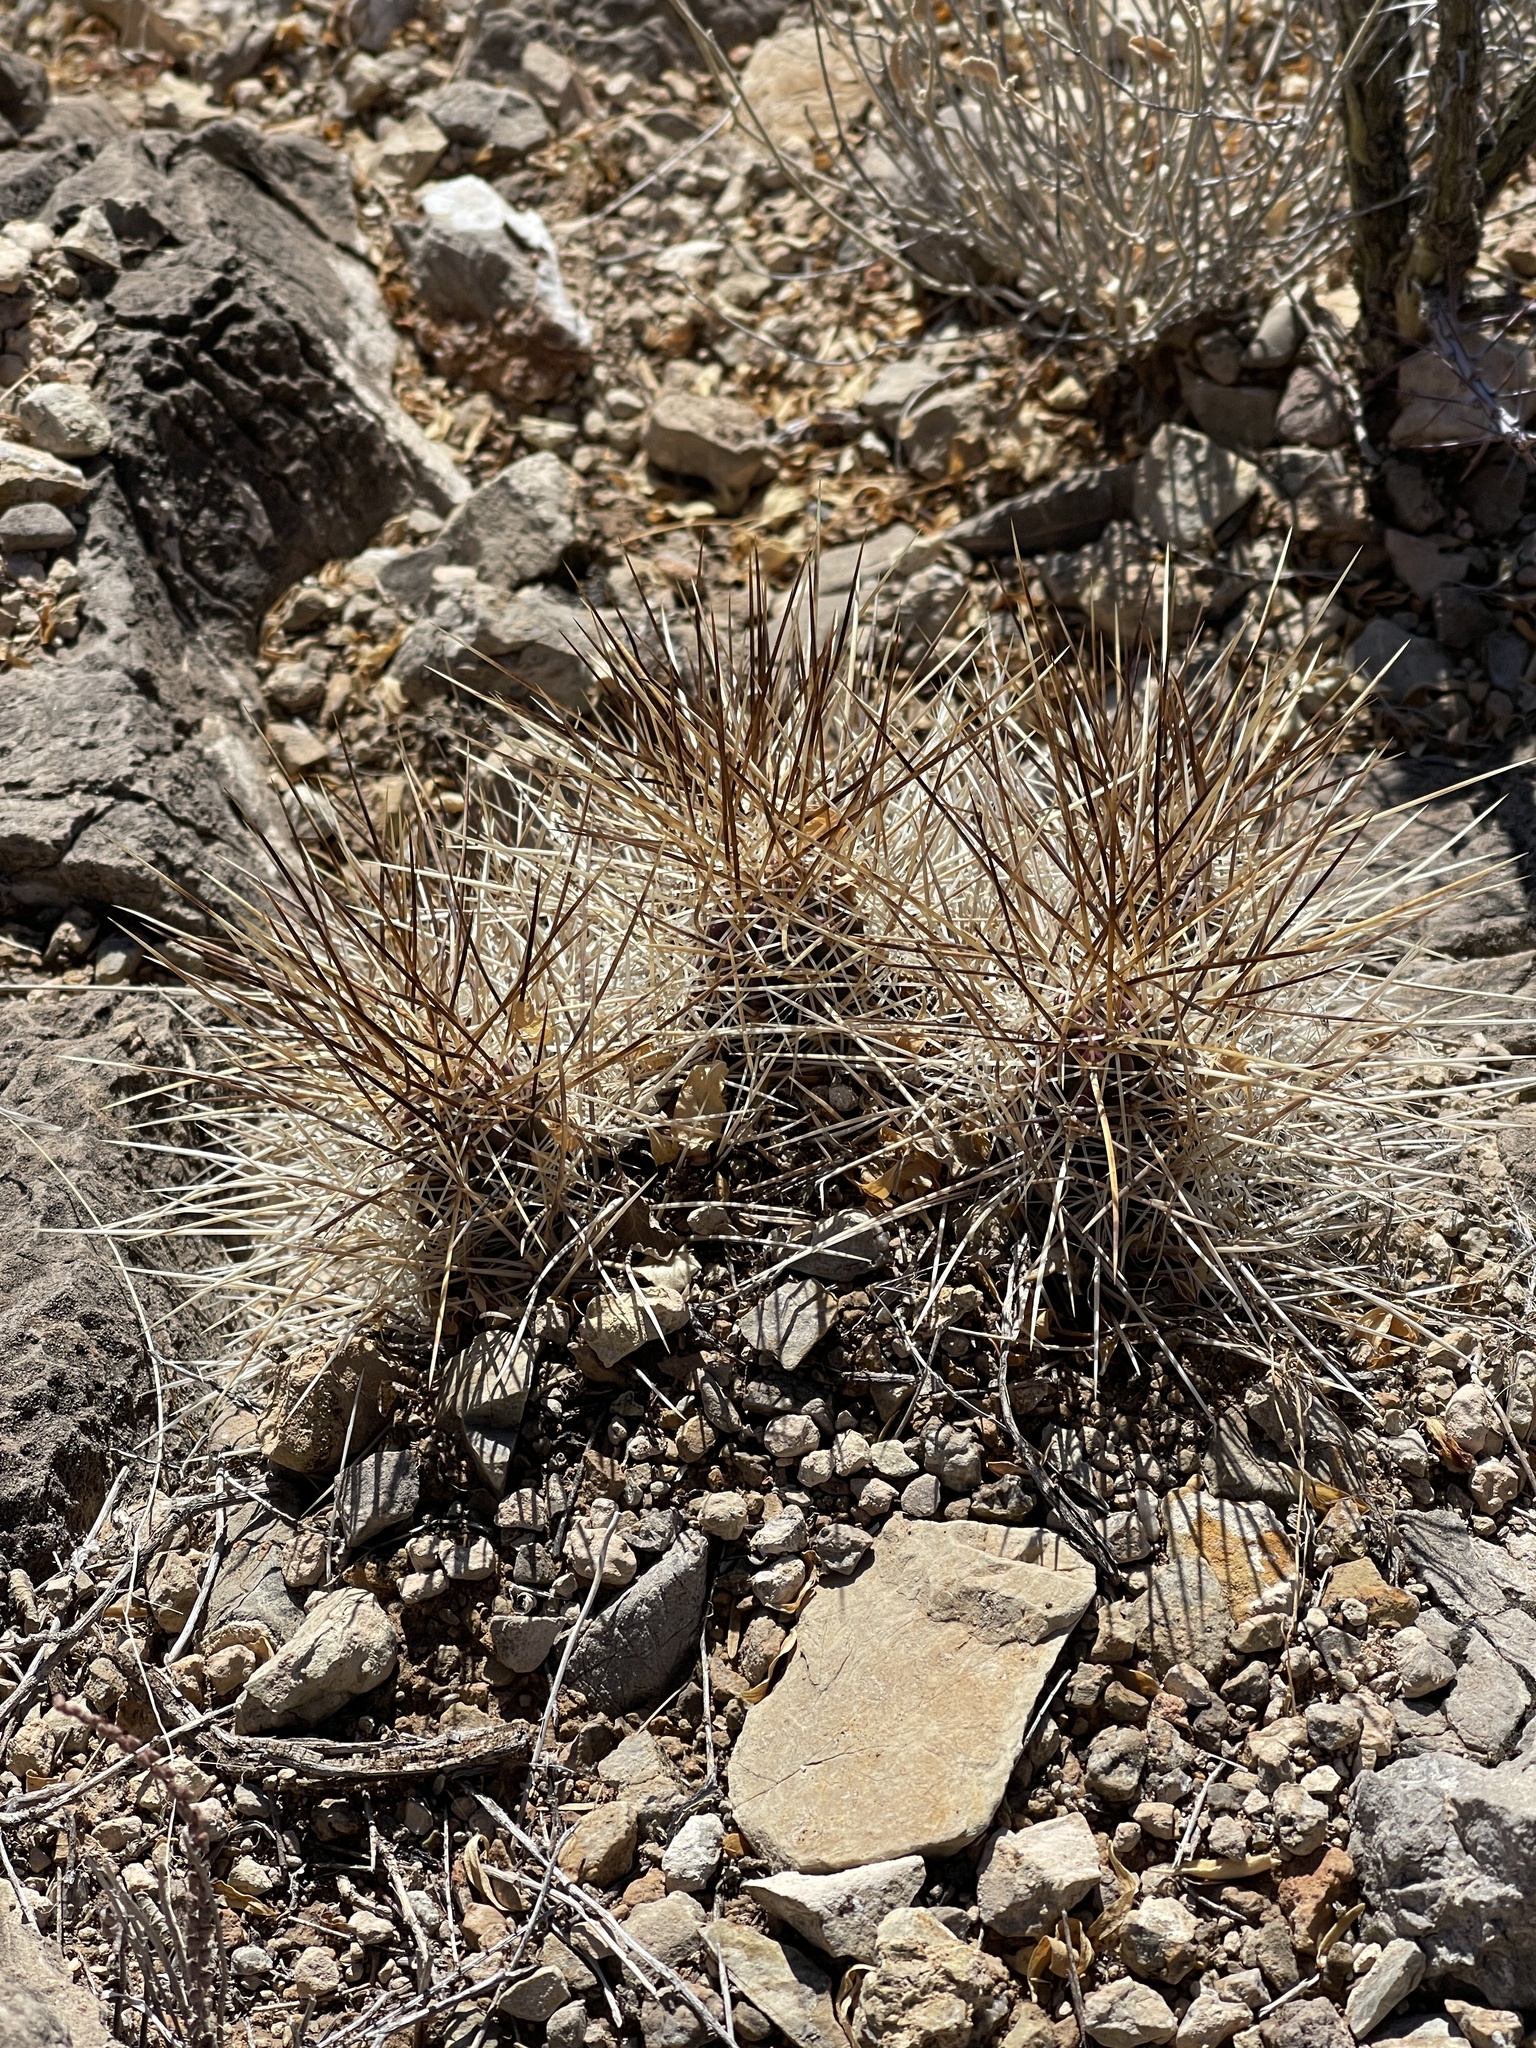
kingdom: Plantae
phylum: Tracheophyta
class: Magnoliopsida
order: Caryophyllales
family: Cactaceae
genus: Echinocereus
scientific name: Echinocereus stramineus
